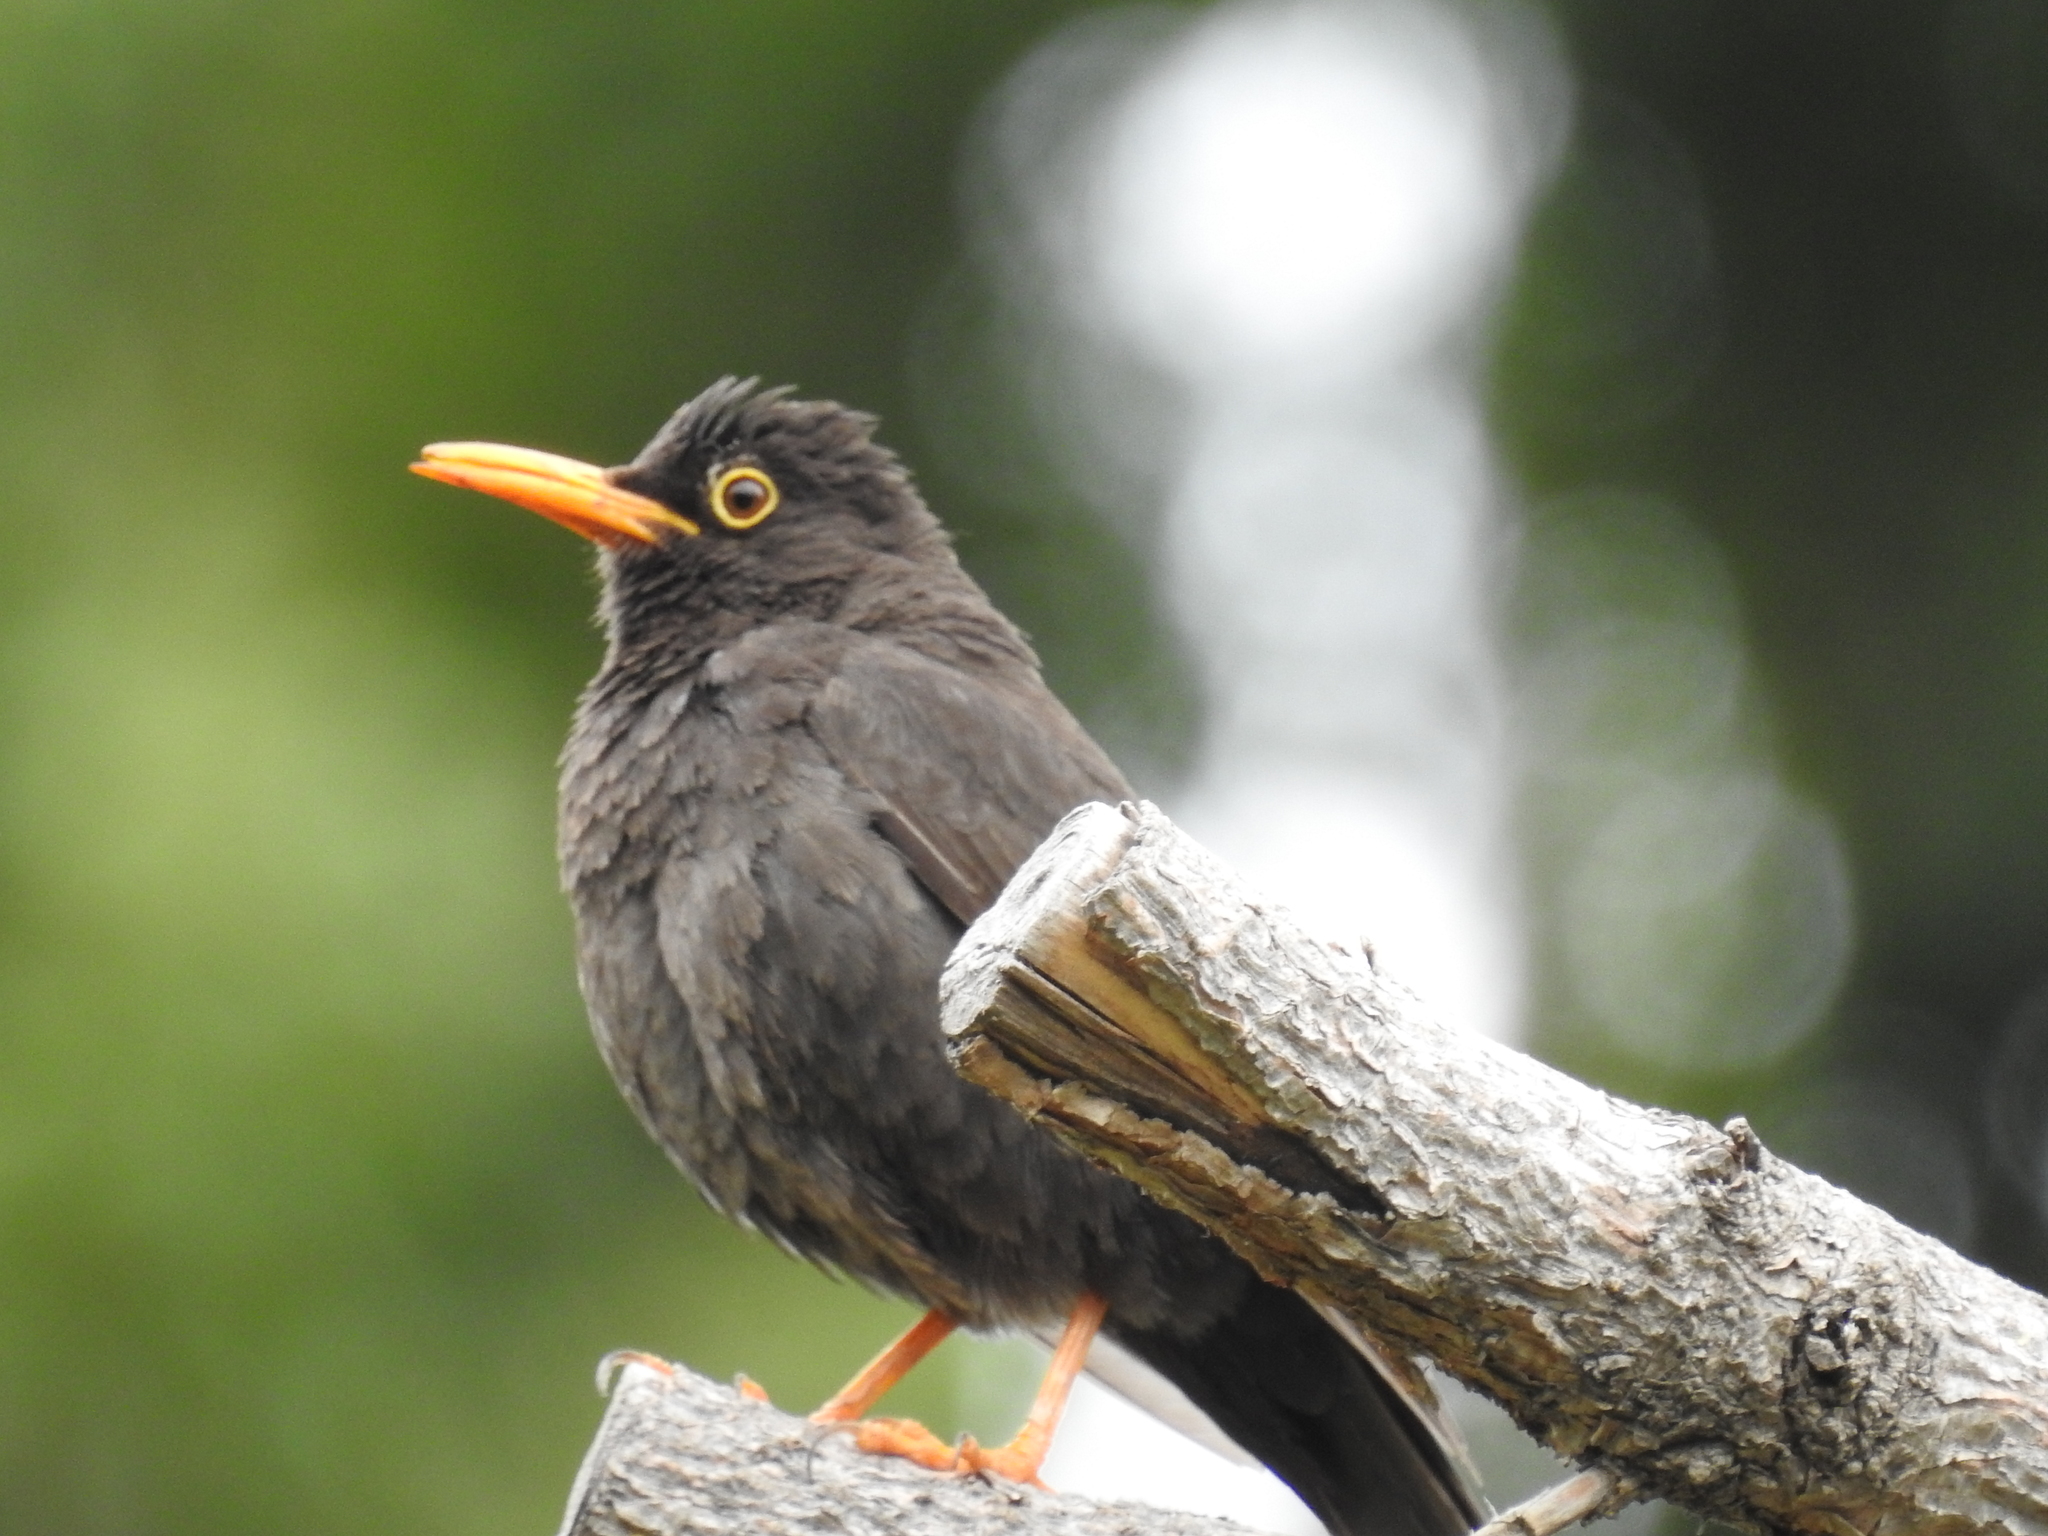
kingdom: Animalia
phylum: Chordata
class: Aves
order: Passeriformes
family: Turdidae
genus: Turdus
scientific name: Turdus chiguanco
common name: Chiguanco thrush
